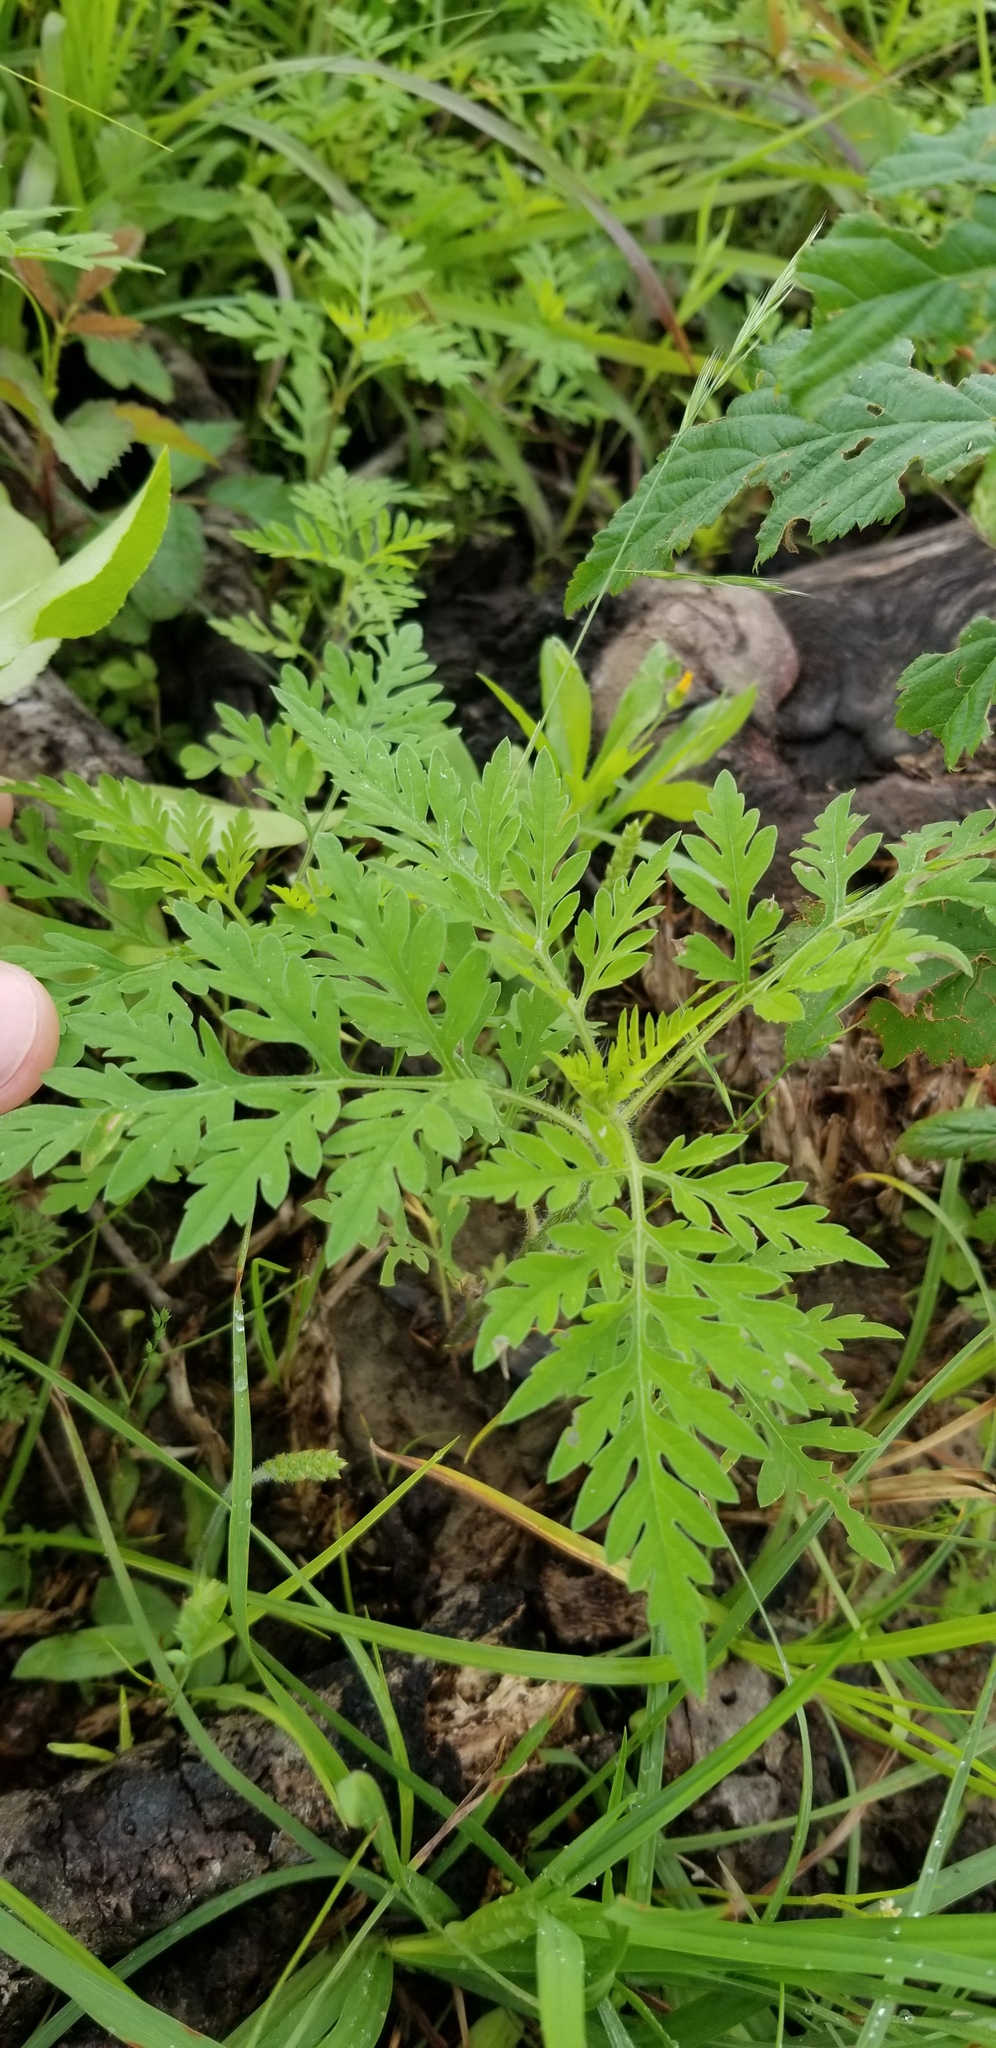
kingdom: Plantae
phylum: Tracheophyta
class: Magnoliopsida
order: Asterales
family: Asteraceae
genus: Ambrosia
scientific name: Ambrosia artemisiifolia
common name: Annual ragweed
